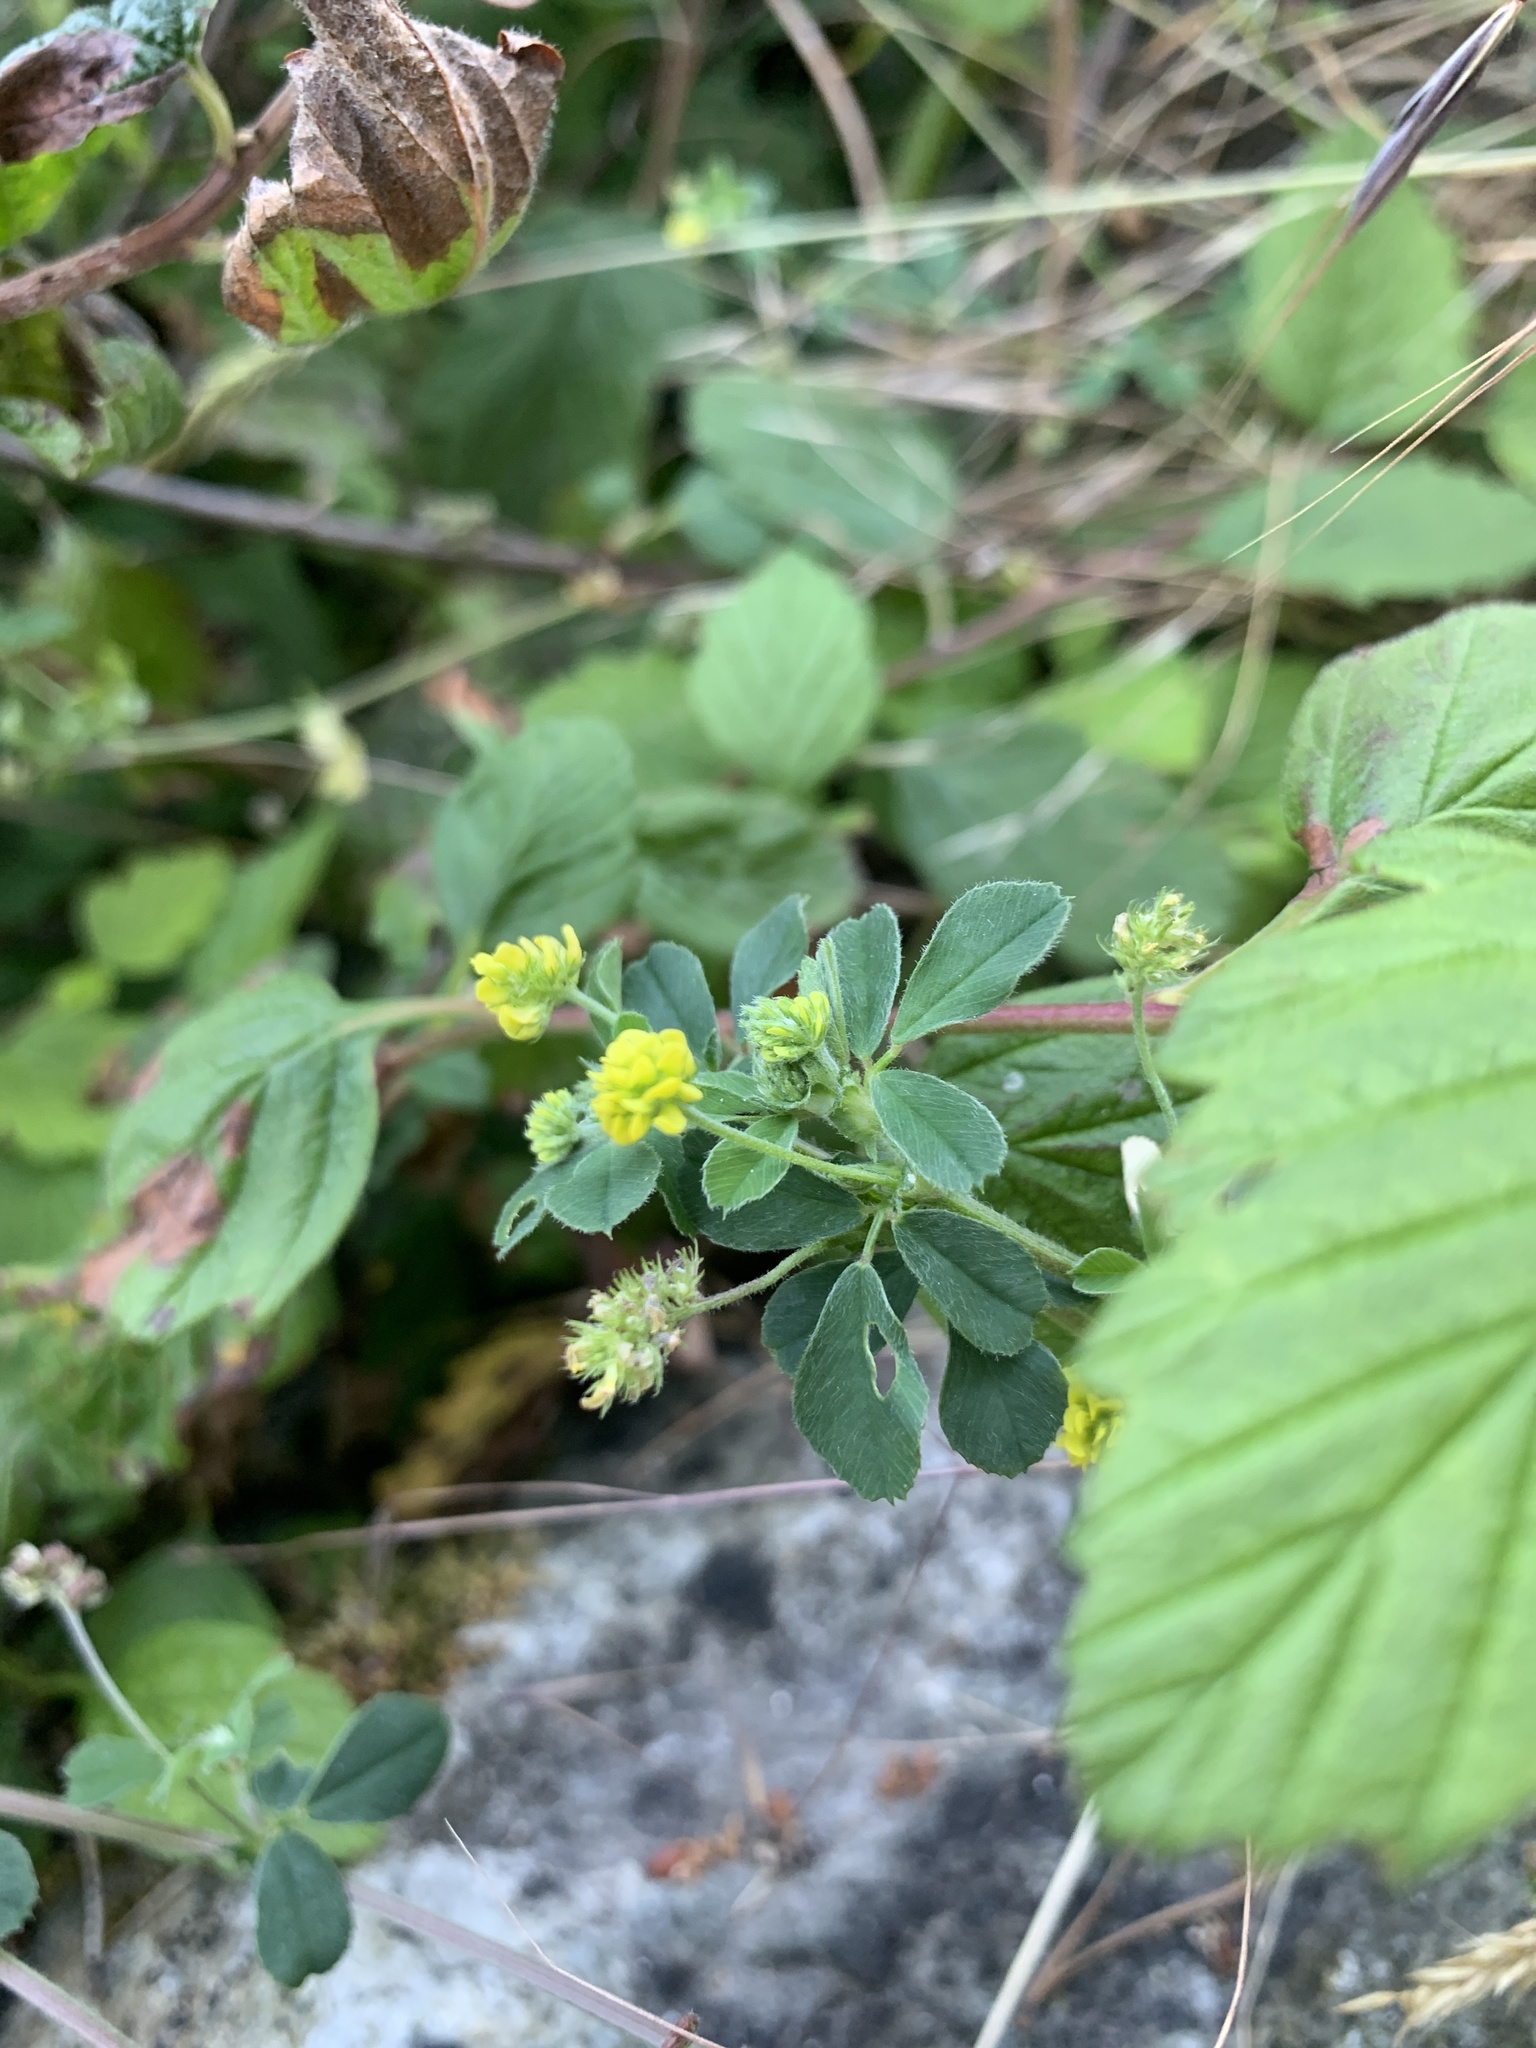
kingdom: Plantae
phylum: Tracheophyta
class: Magnoliopsida
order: Fabales
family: Fabaceae
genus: Medicago
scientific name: Medicago lupulina
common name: Black medick
